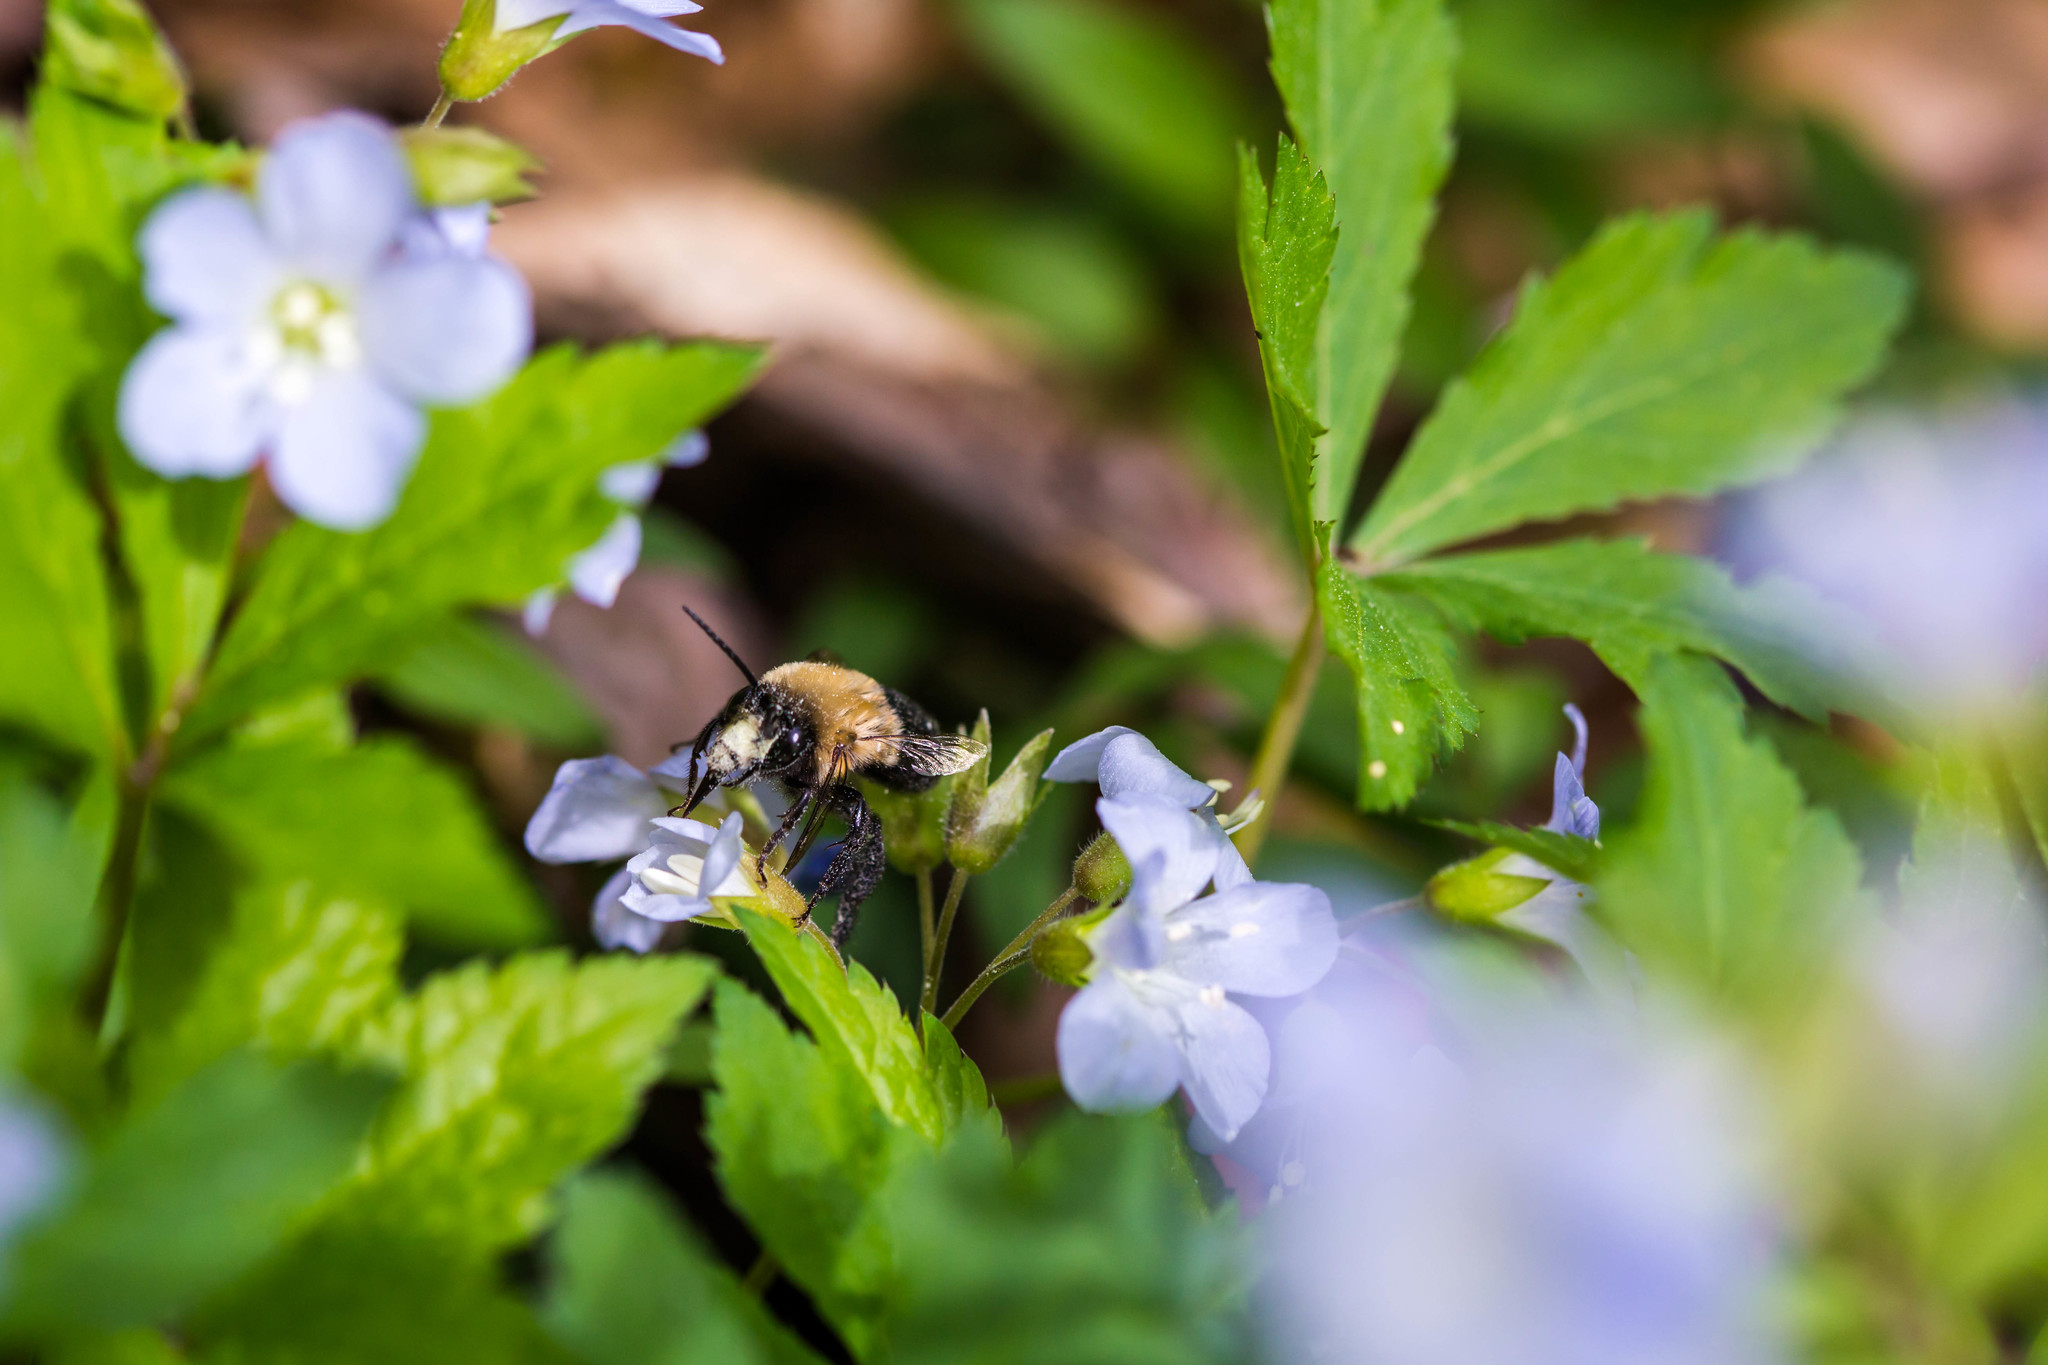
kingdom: Animalia
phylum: Arthropoda
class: Insecta
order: Hymenoptera
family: Apidae
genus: Habropoda
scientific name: Habropoda laboriosa
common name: Southeastern blueberry bee
